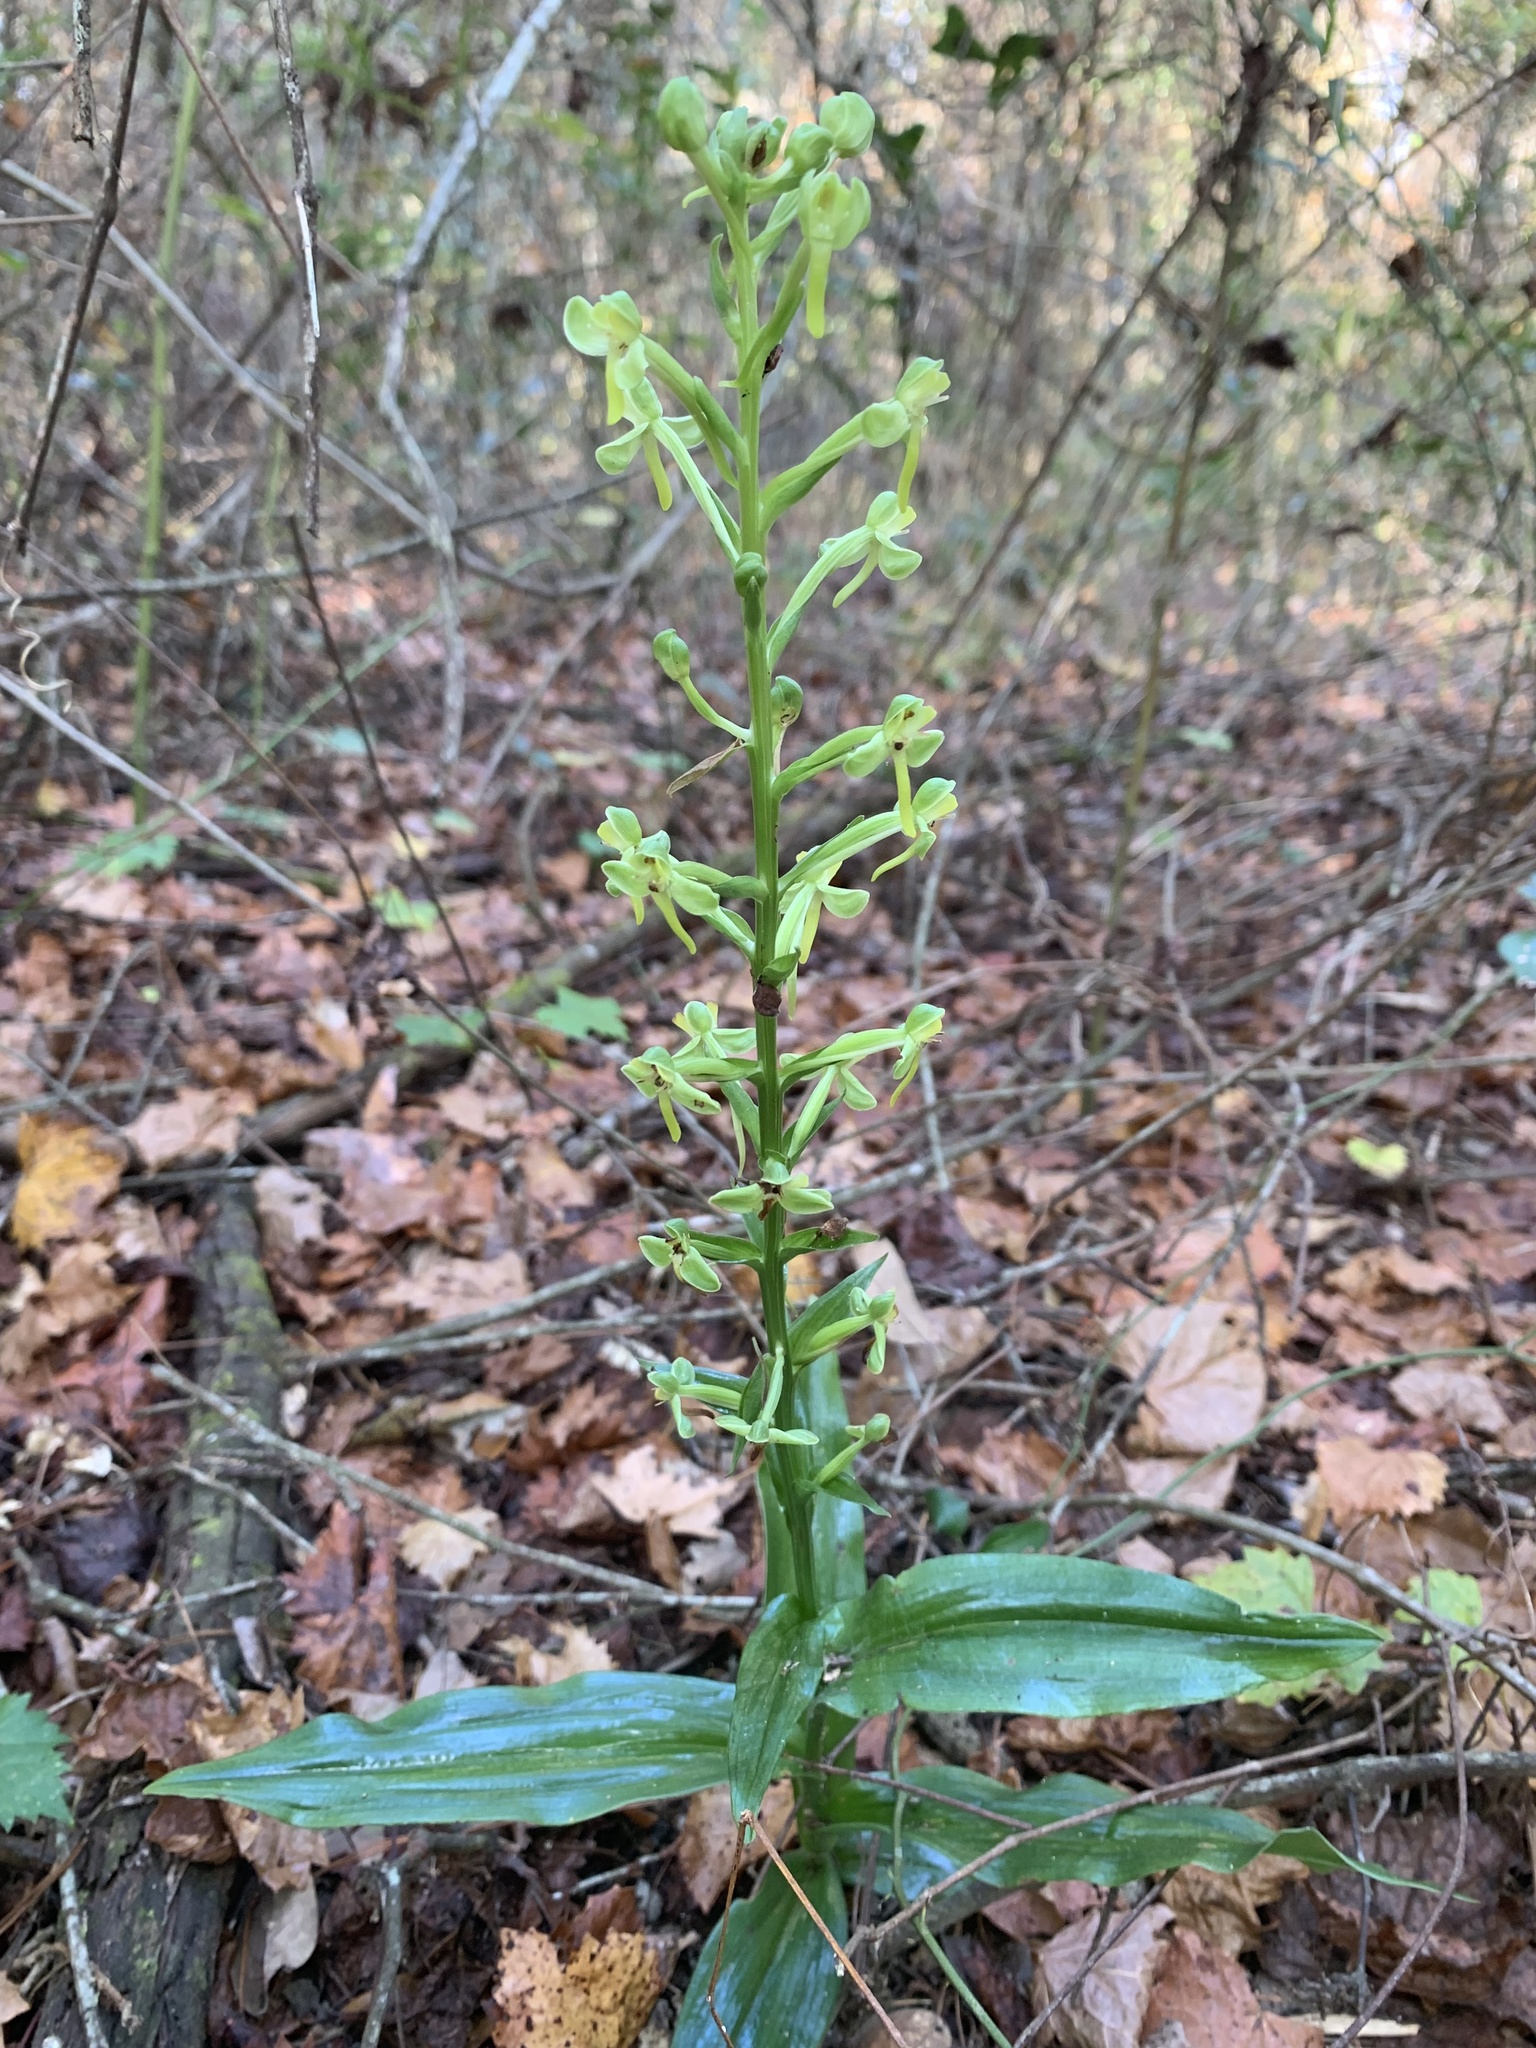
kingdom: Plantae
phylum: Tracheophyta
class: Liliopsida
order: Asparagales
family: Orchidaceae
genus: Habenaria
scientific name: Habenaria floribunda
